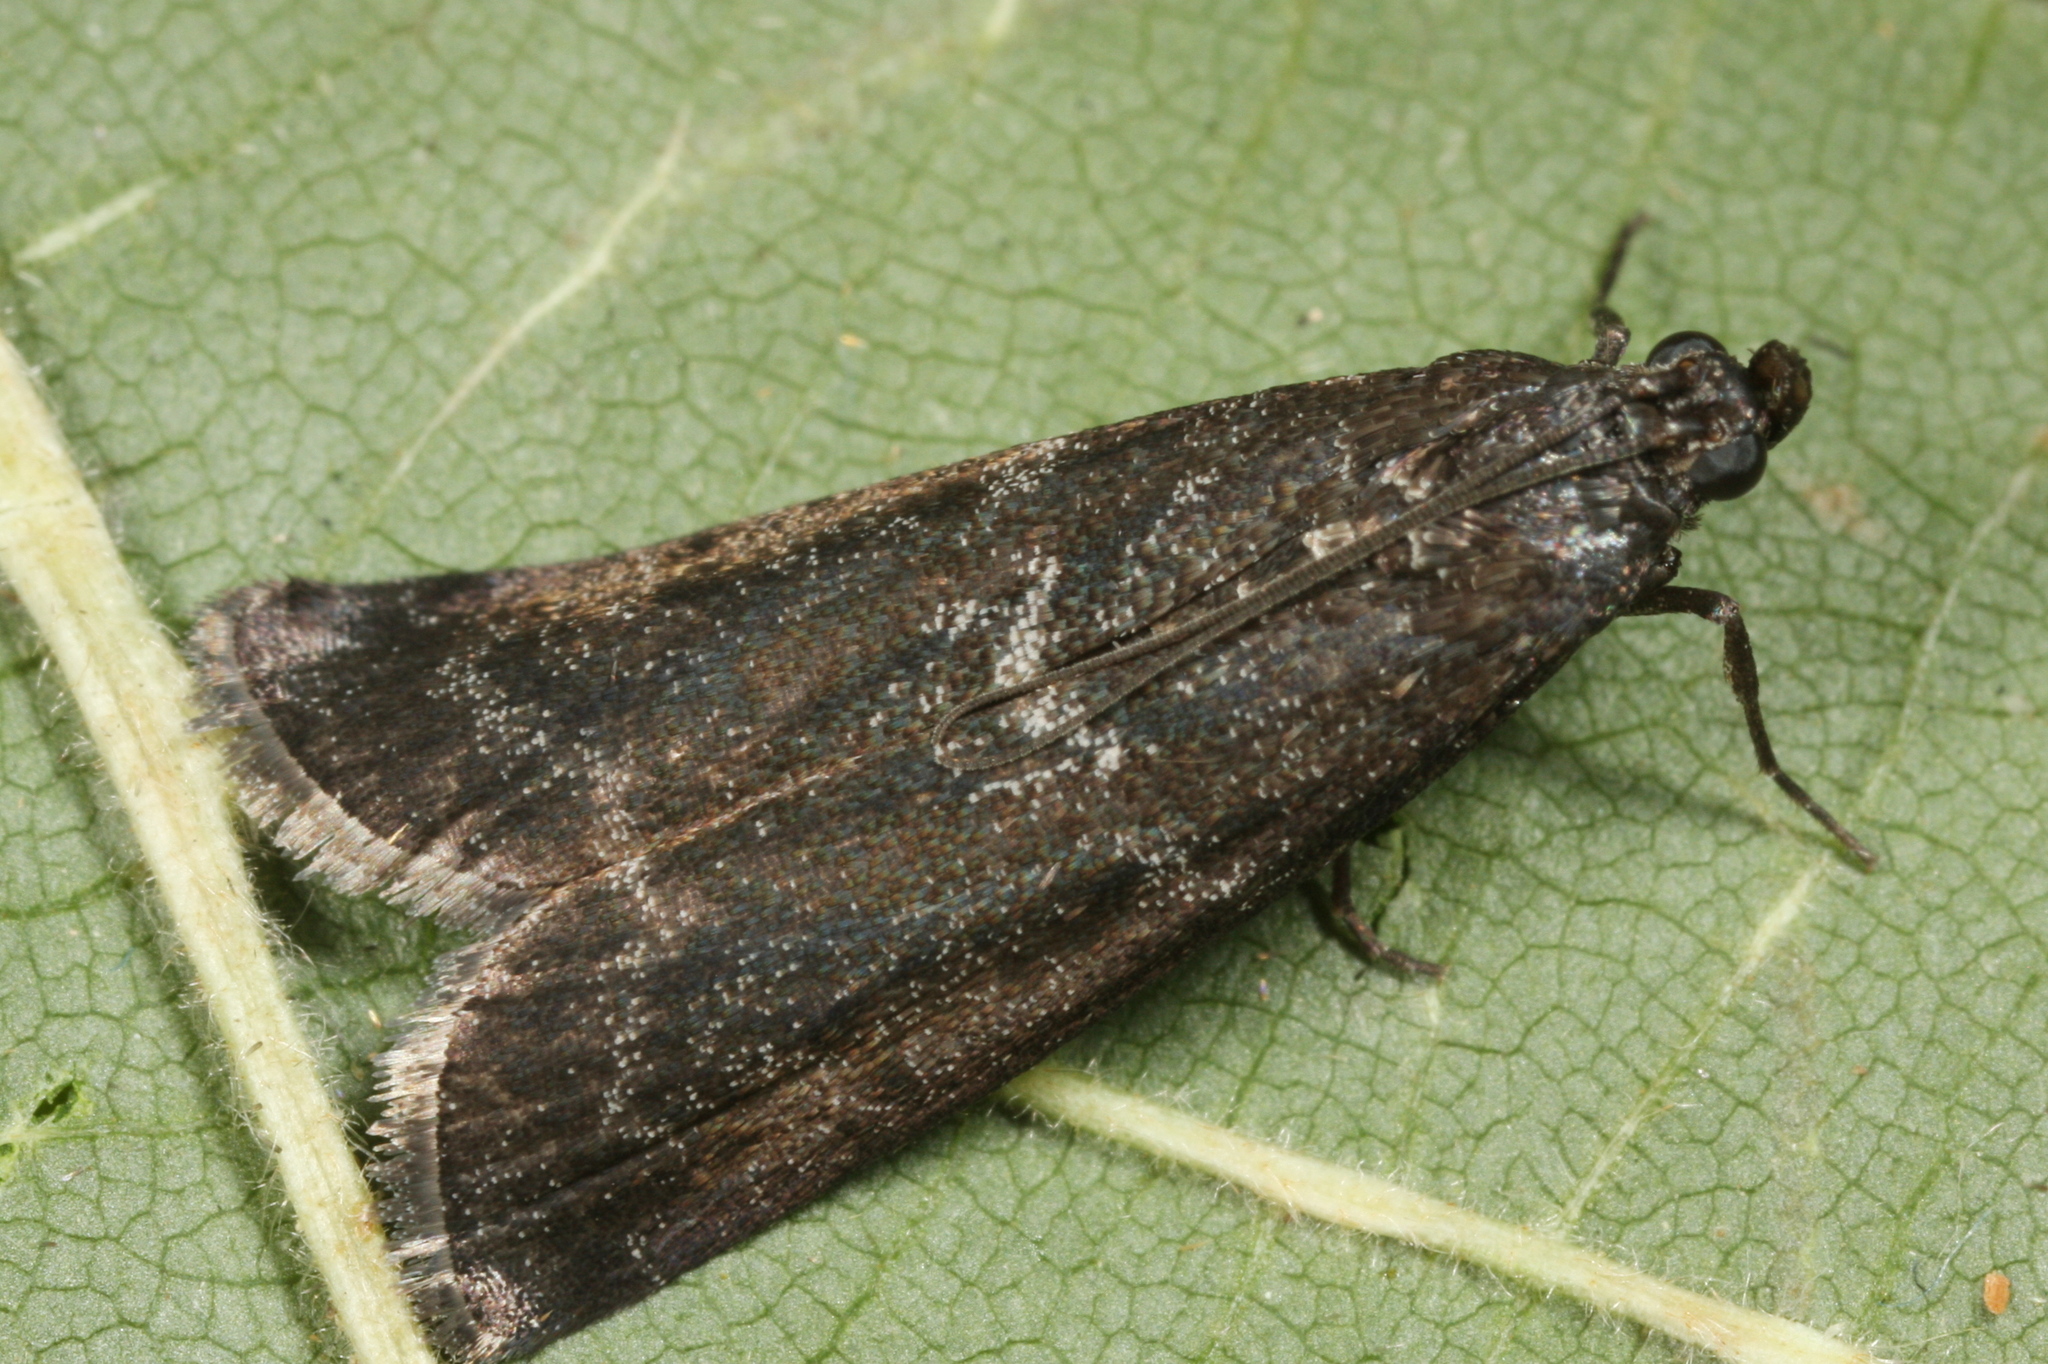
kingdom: Animalia
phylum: Arthropoda
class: Insecta
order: Lepidoptera
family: Pyralidae
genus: Pyla
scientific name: Pyla fusca
